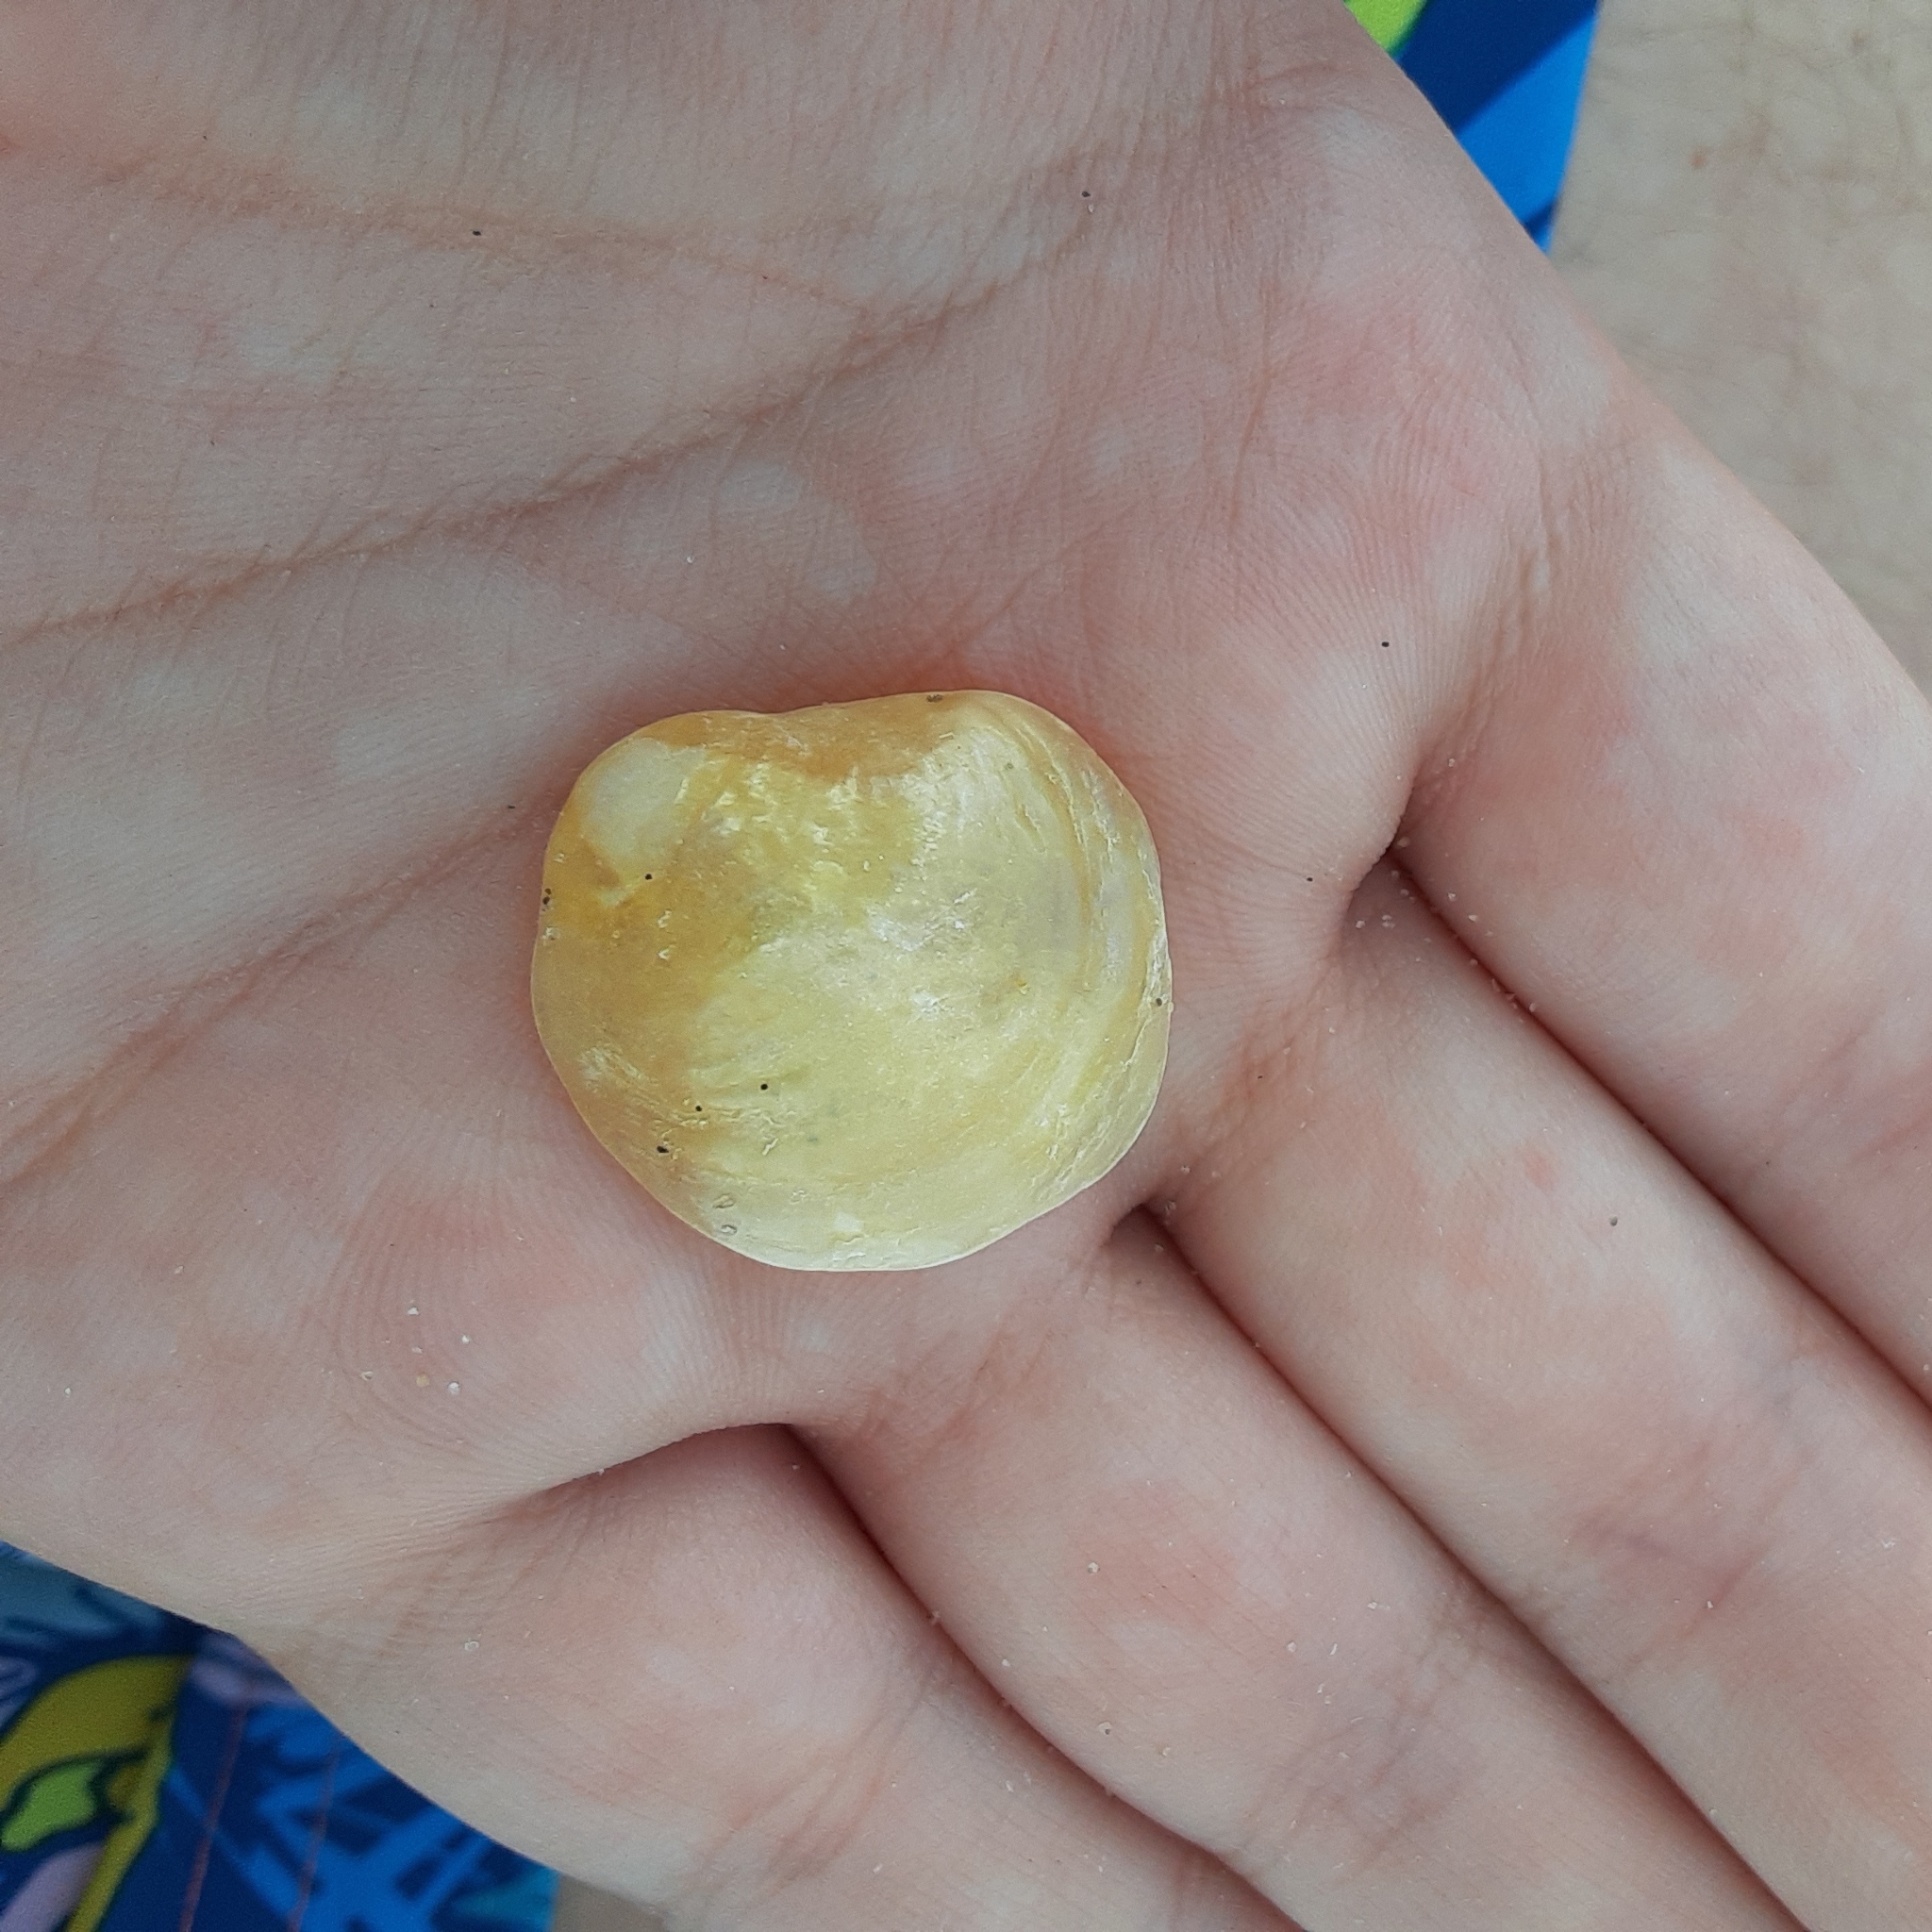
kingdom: Animalia
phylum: Mollusca
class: Bivalvia
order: Pectinida
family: Anomiidae
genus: Anomia
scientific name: Anomia simplex
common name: Common jingle shell
